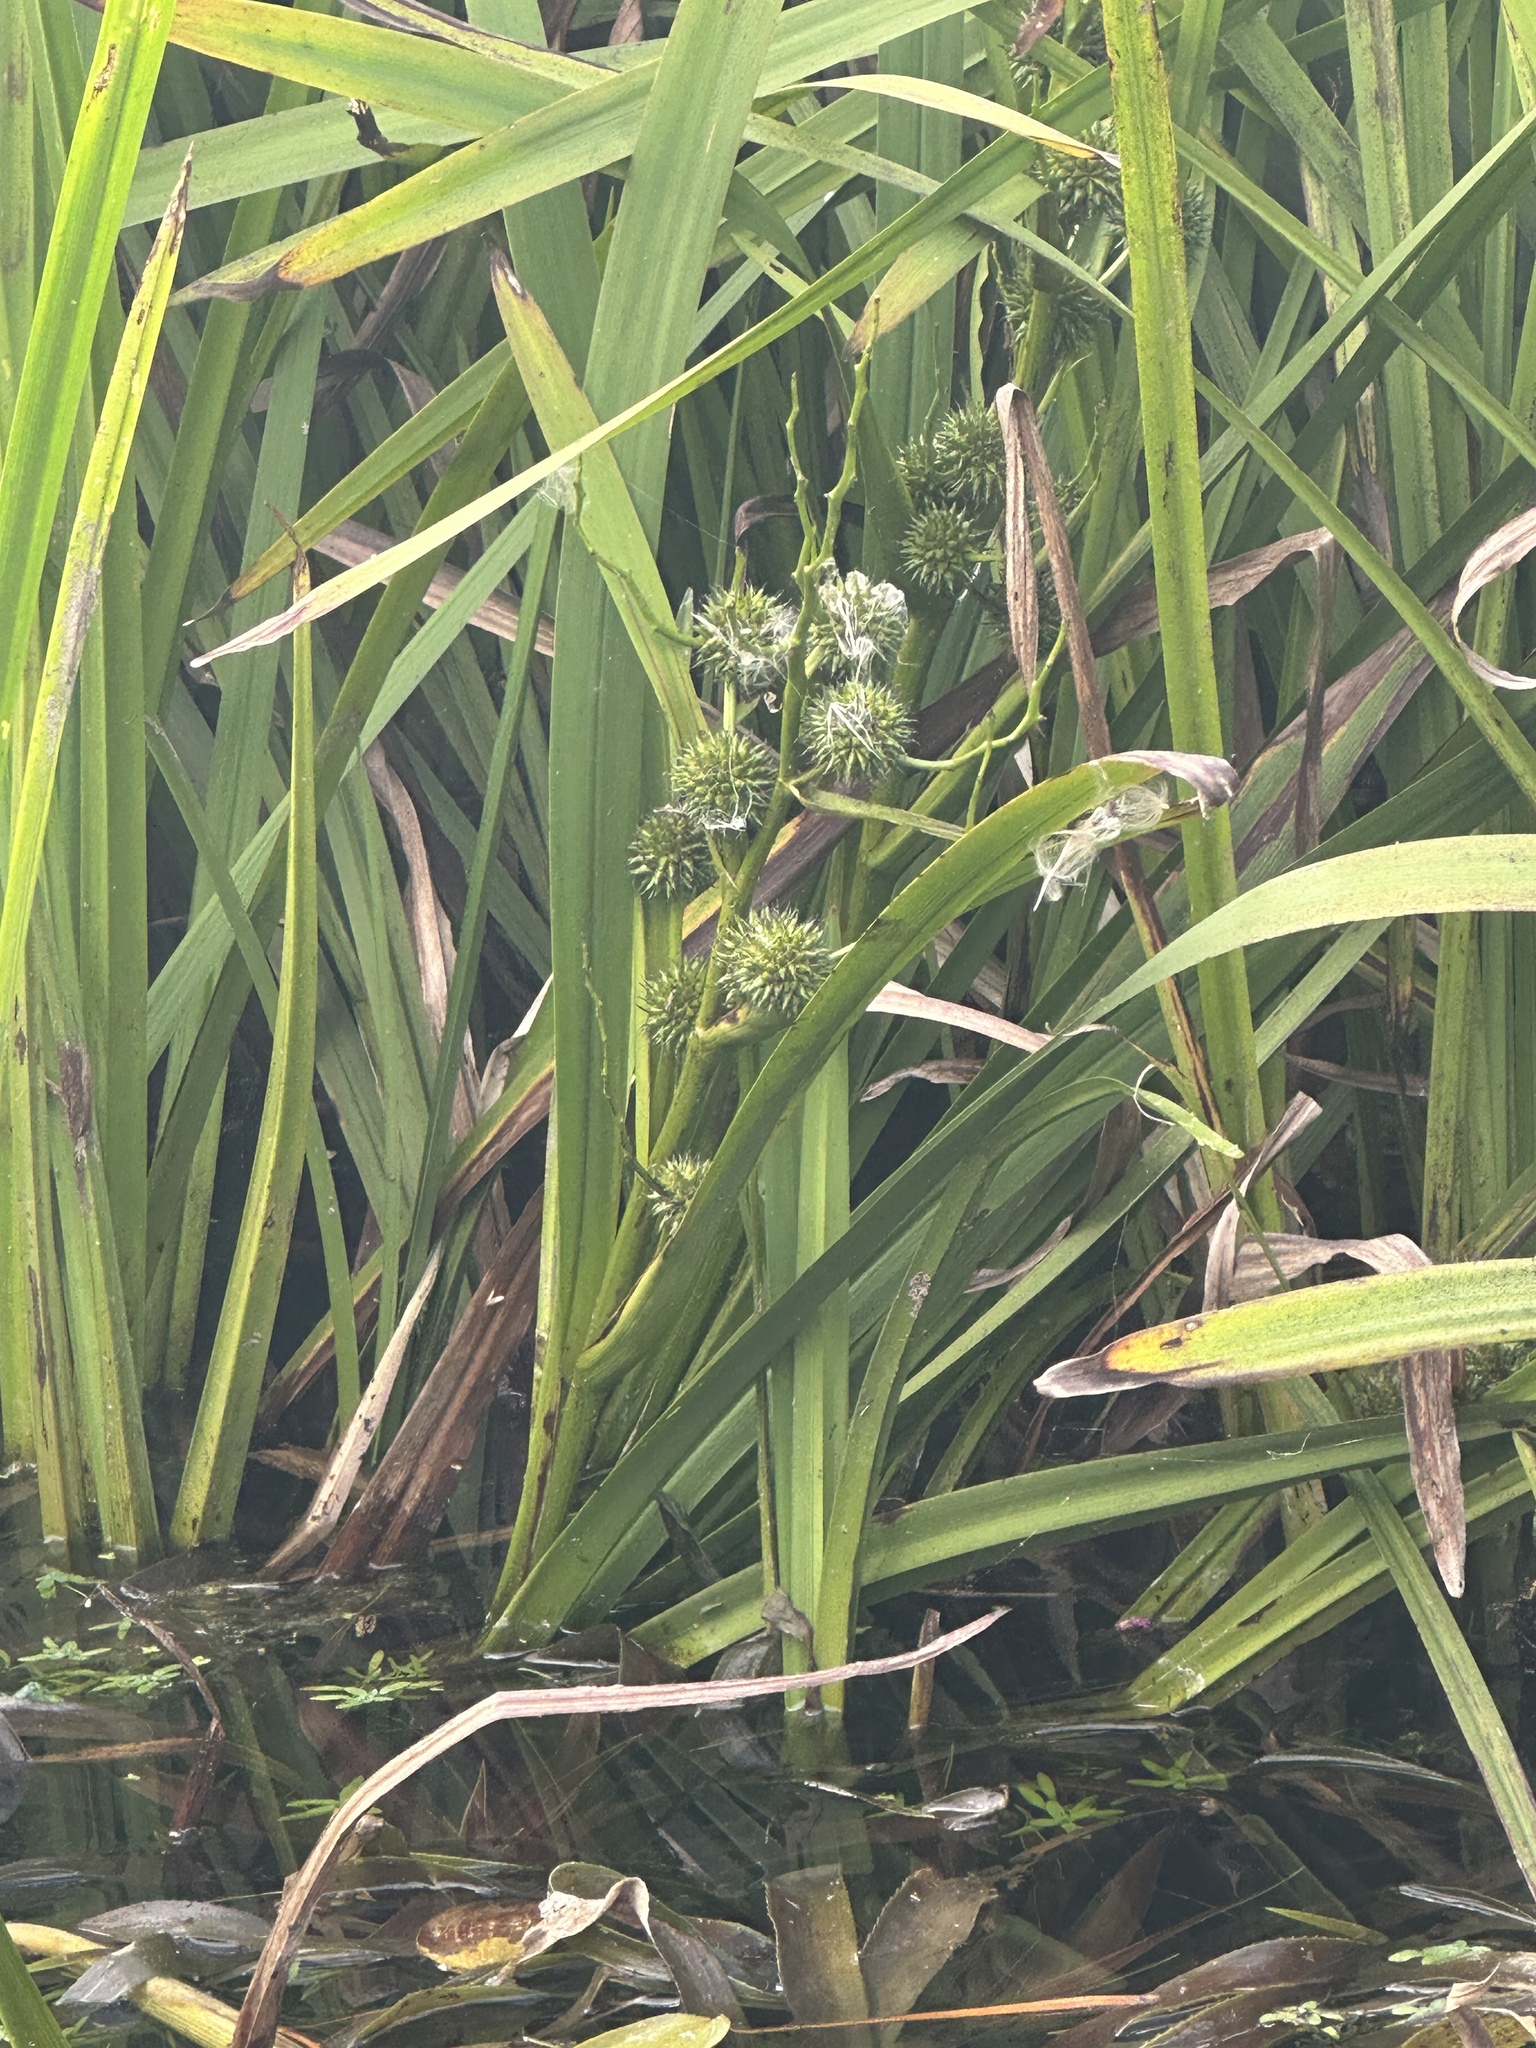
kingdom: Plantae
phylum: Tracheophyta
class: Liliopsida
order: Poales
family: Typhaceae
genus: Sparganium
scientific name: Sparganium erectum
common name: Branched bur-reed
